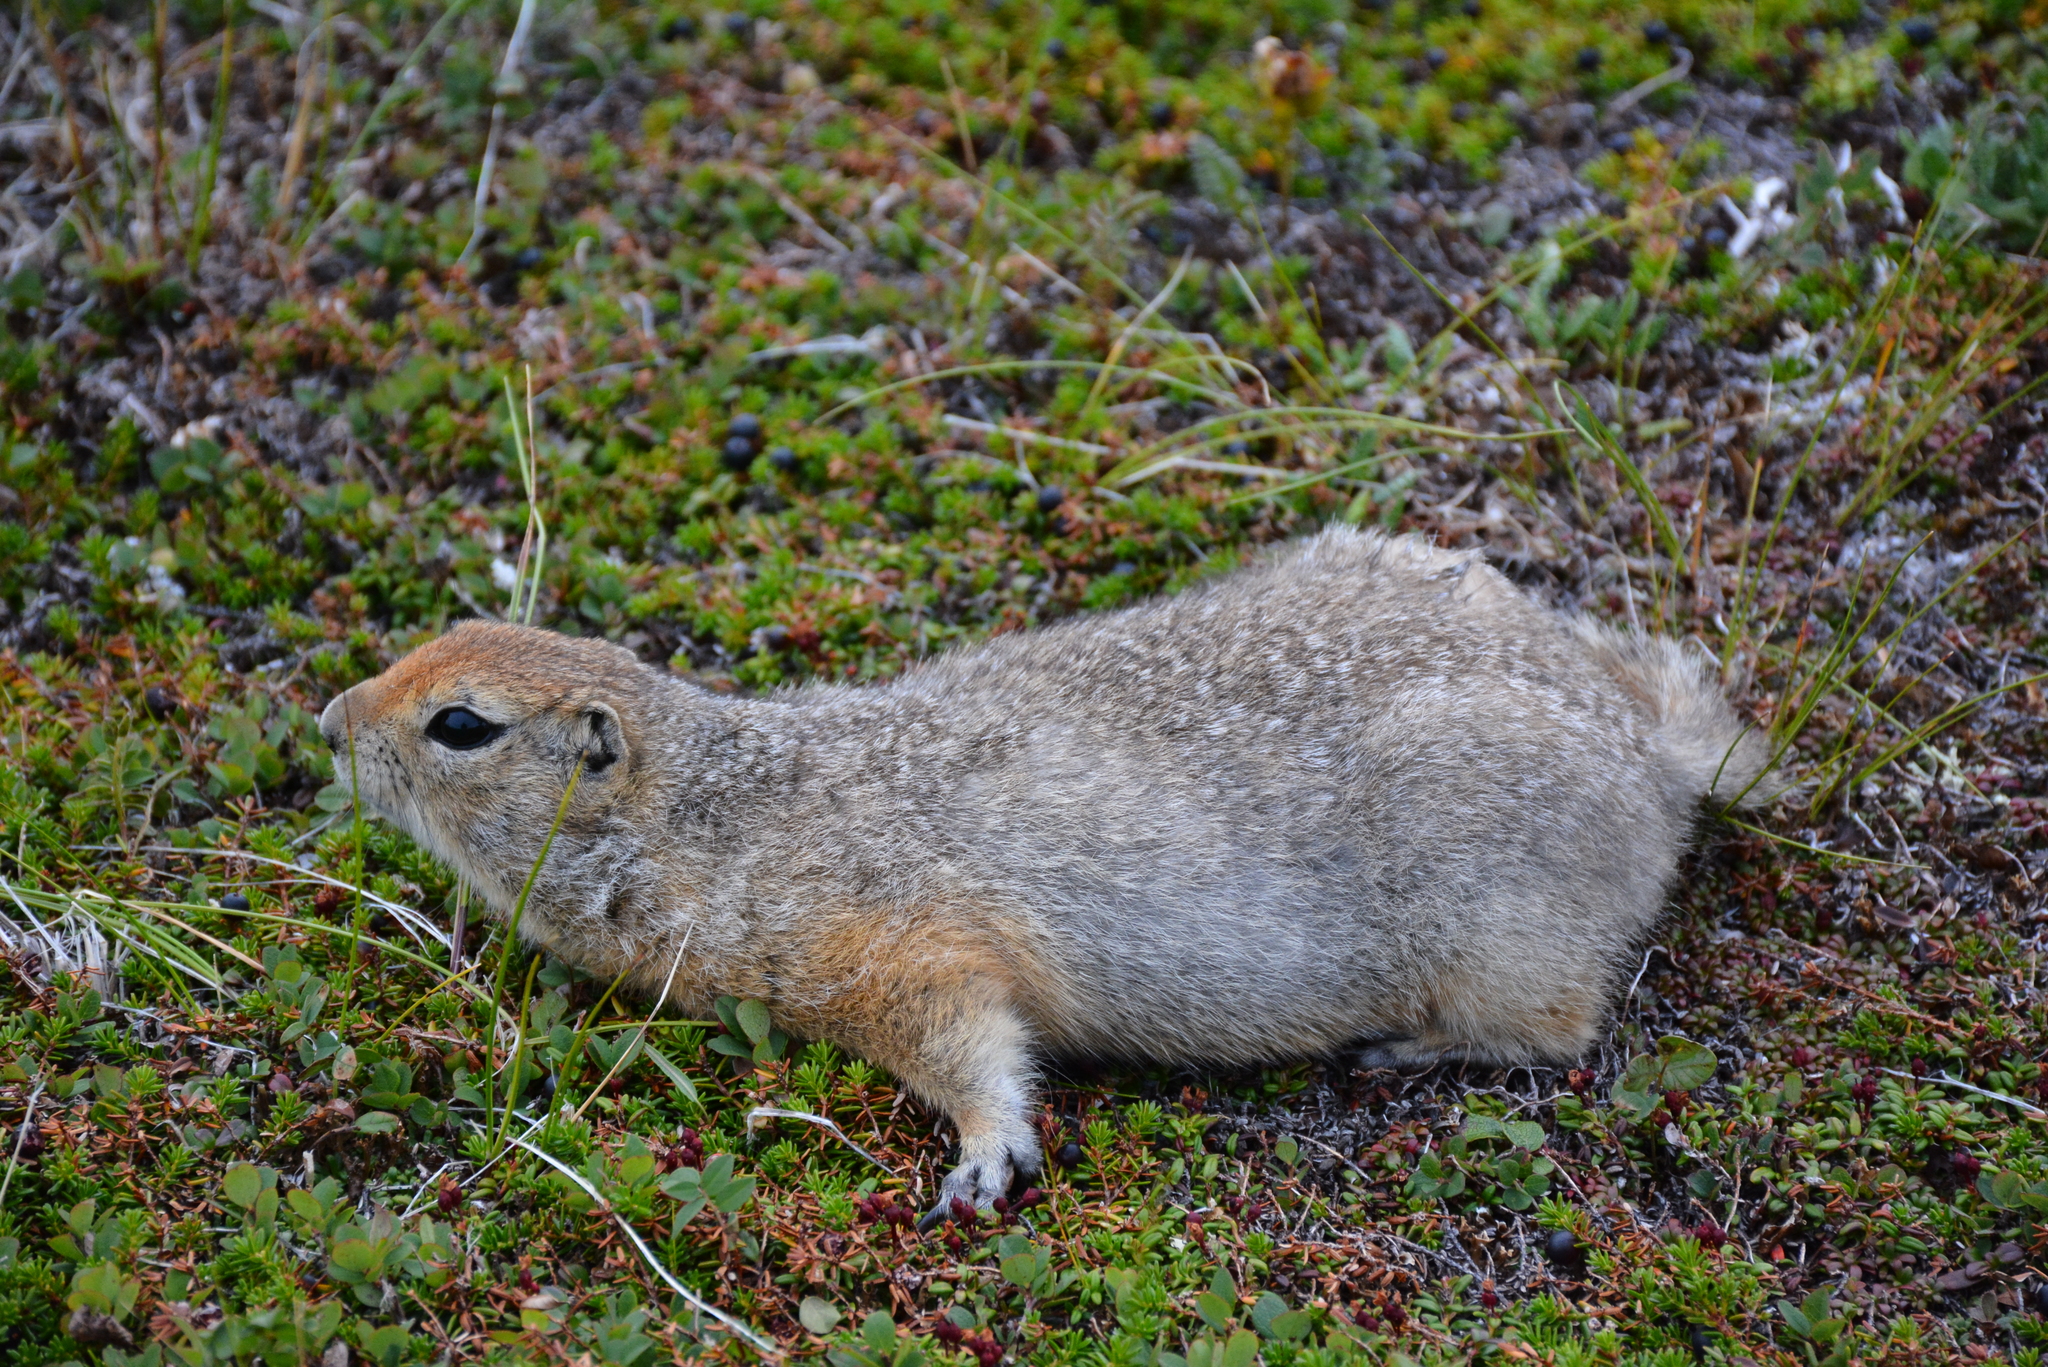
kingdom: Animalia
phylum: Chordata
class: Mammalia
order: Rodentia
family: Sciuridae
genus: Urocitellus
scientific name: Urocitellus parryii
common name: Arctic ground squirrel
